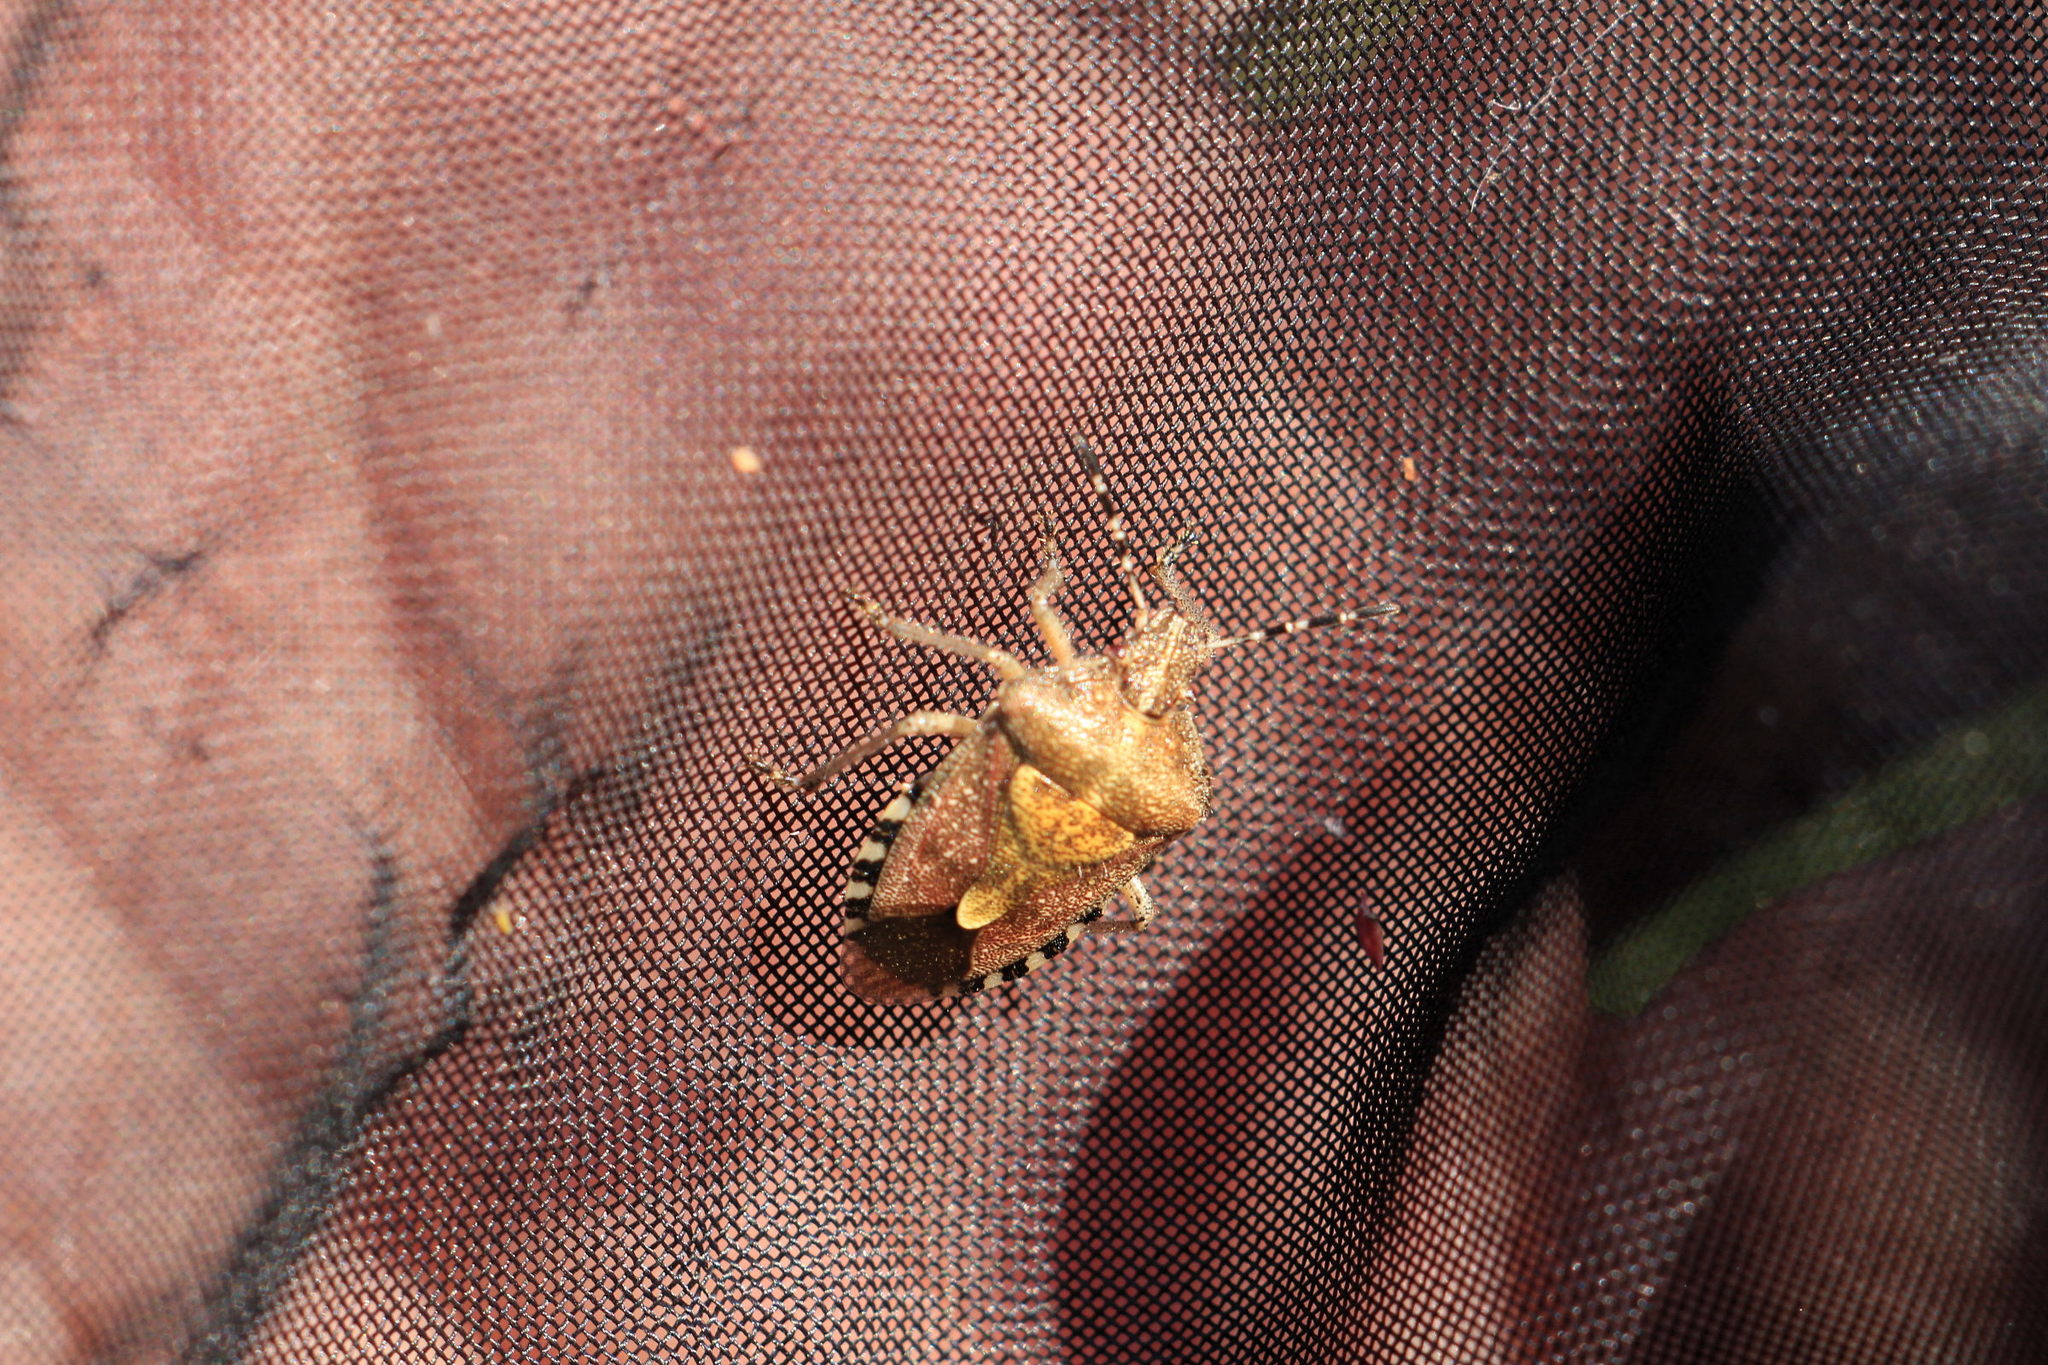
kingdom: Animalia
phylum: Arthropoda
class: Insecta
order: Hemiptera
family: Pentatomidae
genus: Dolycoris
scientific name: Dolycoris baccarum
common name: Sloe bug
